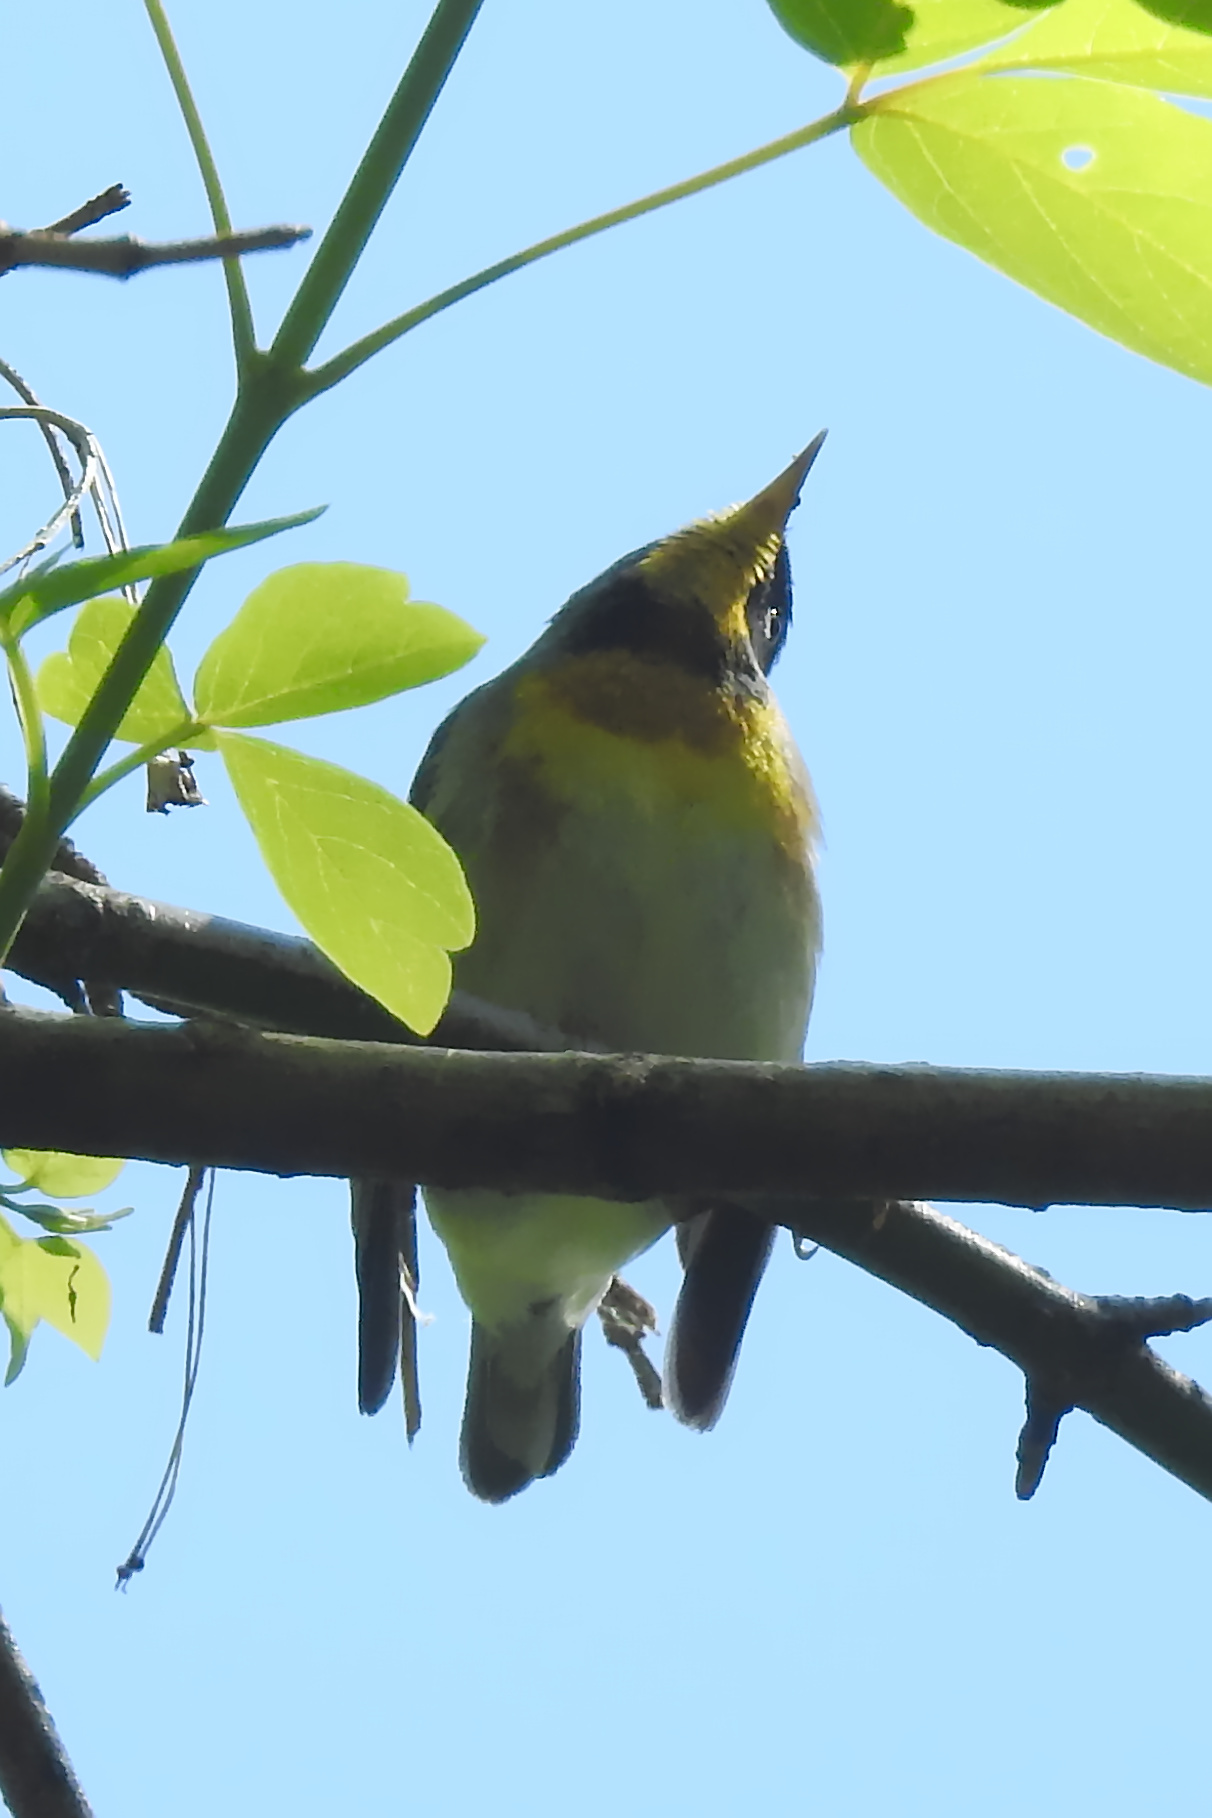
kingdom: Animalia
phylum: Chordata
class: Aves
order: Passeriformes
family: Parulidae
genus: Setophaga
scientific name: Setophaga americana
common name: Northern parula
